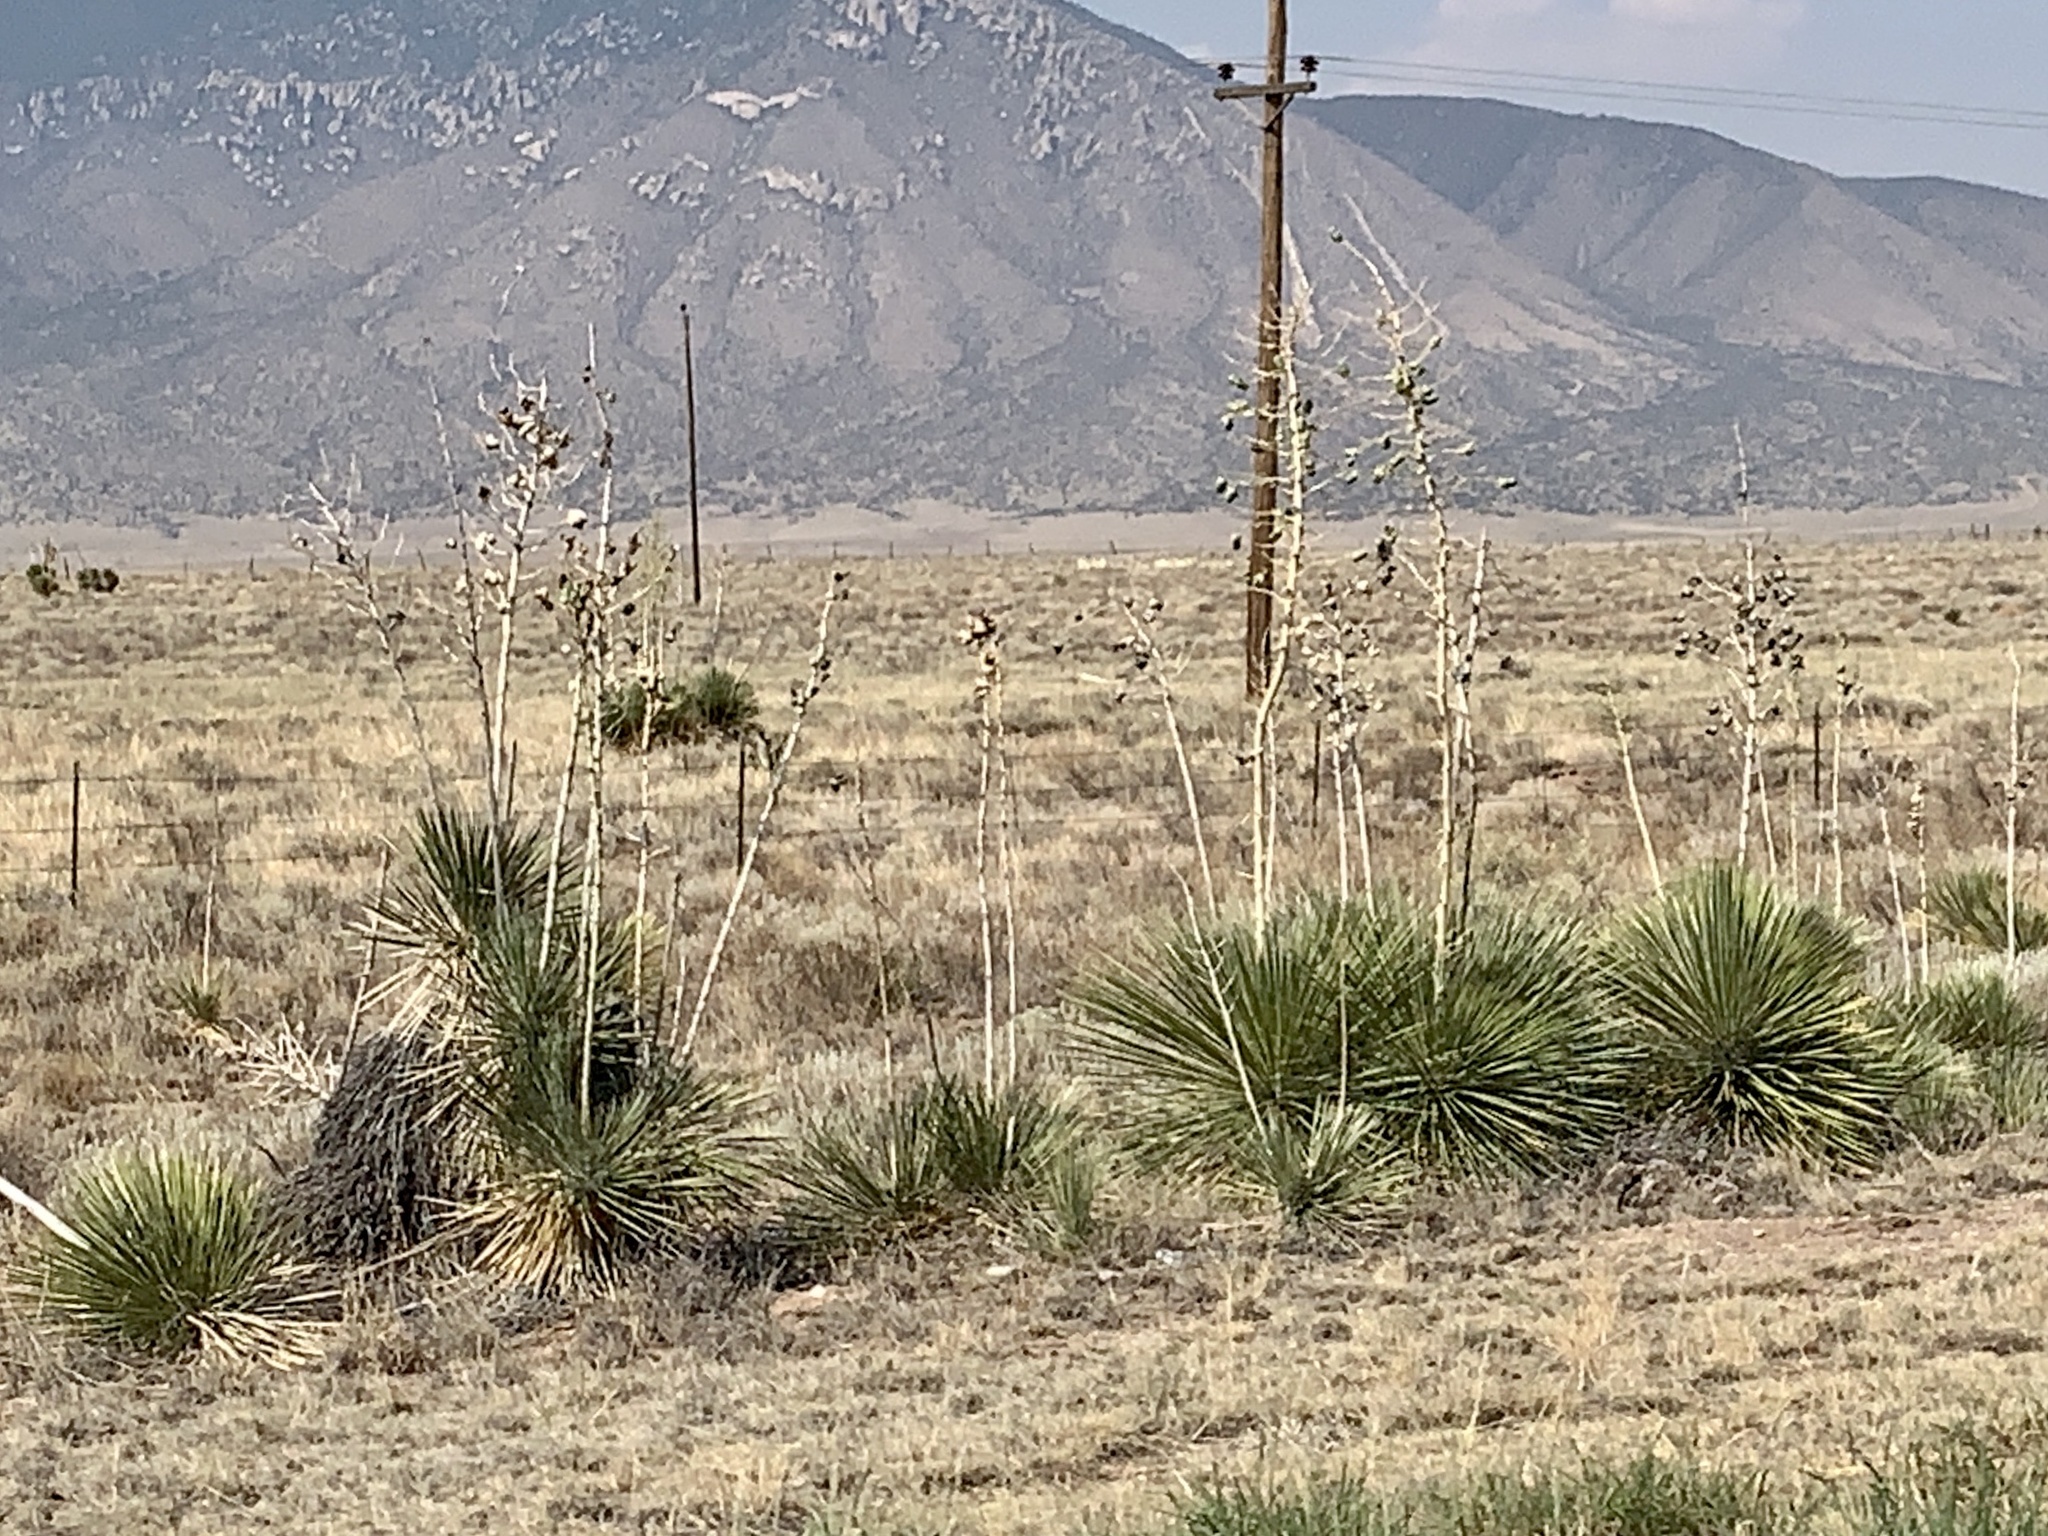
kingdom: Plantae
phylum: Tracheophyta
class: Liliopsida
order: Asparagales
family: Asparagaceae
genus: Yucca
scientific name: Yucca elata
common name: Palmella
